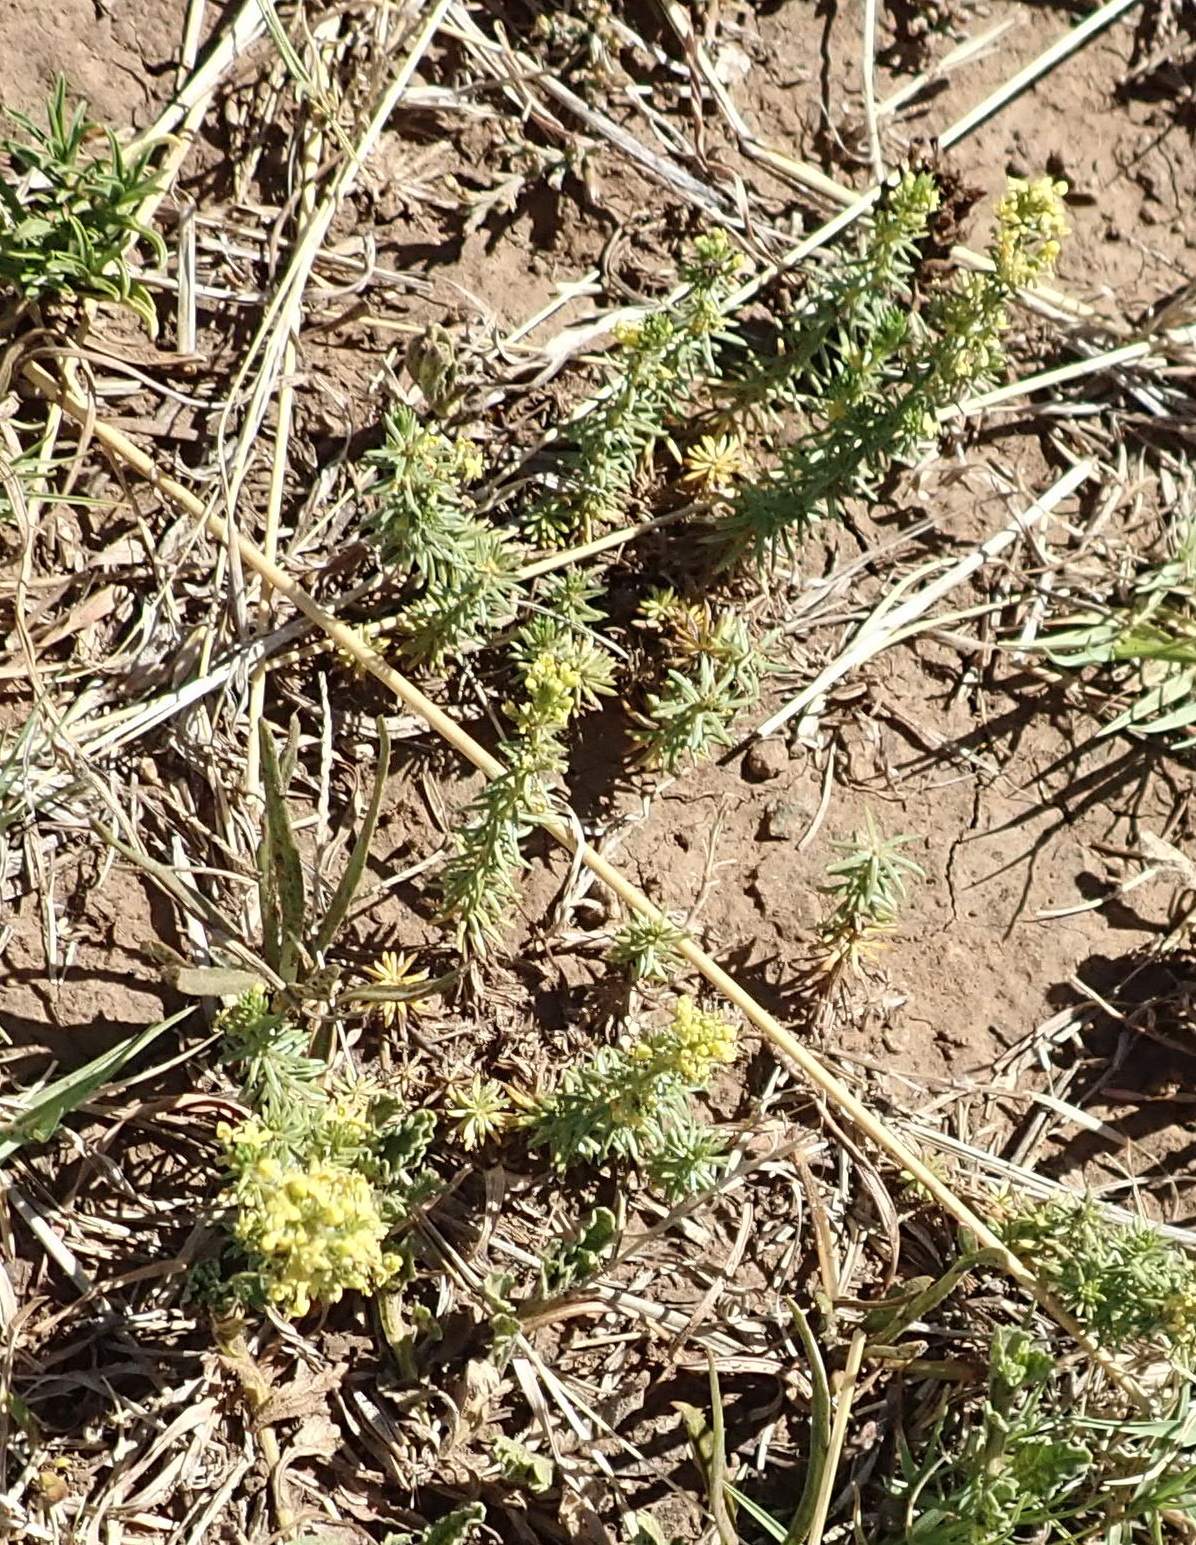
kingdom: Plantae
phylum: Tracheophyta
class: Magnoliopsida
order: Gentianales
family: Rubiaceae
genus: Galium
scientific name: Galium capense
